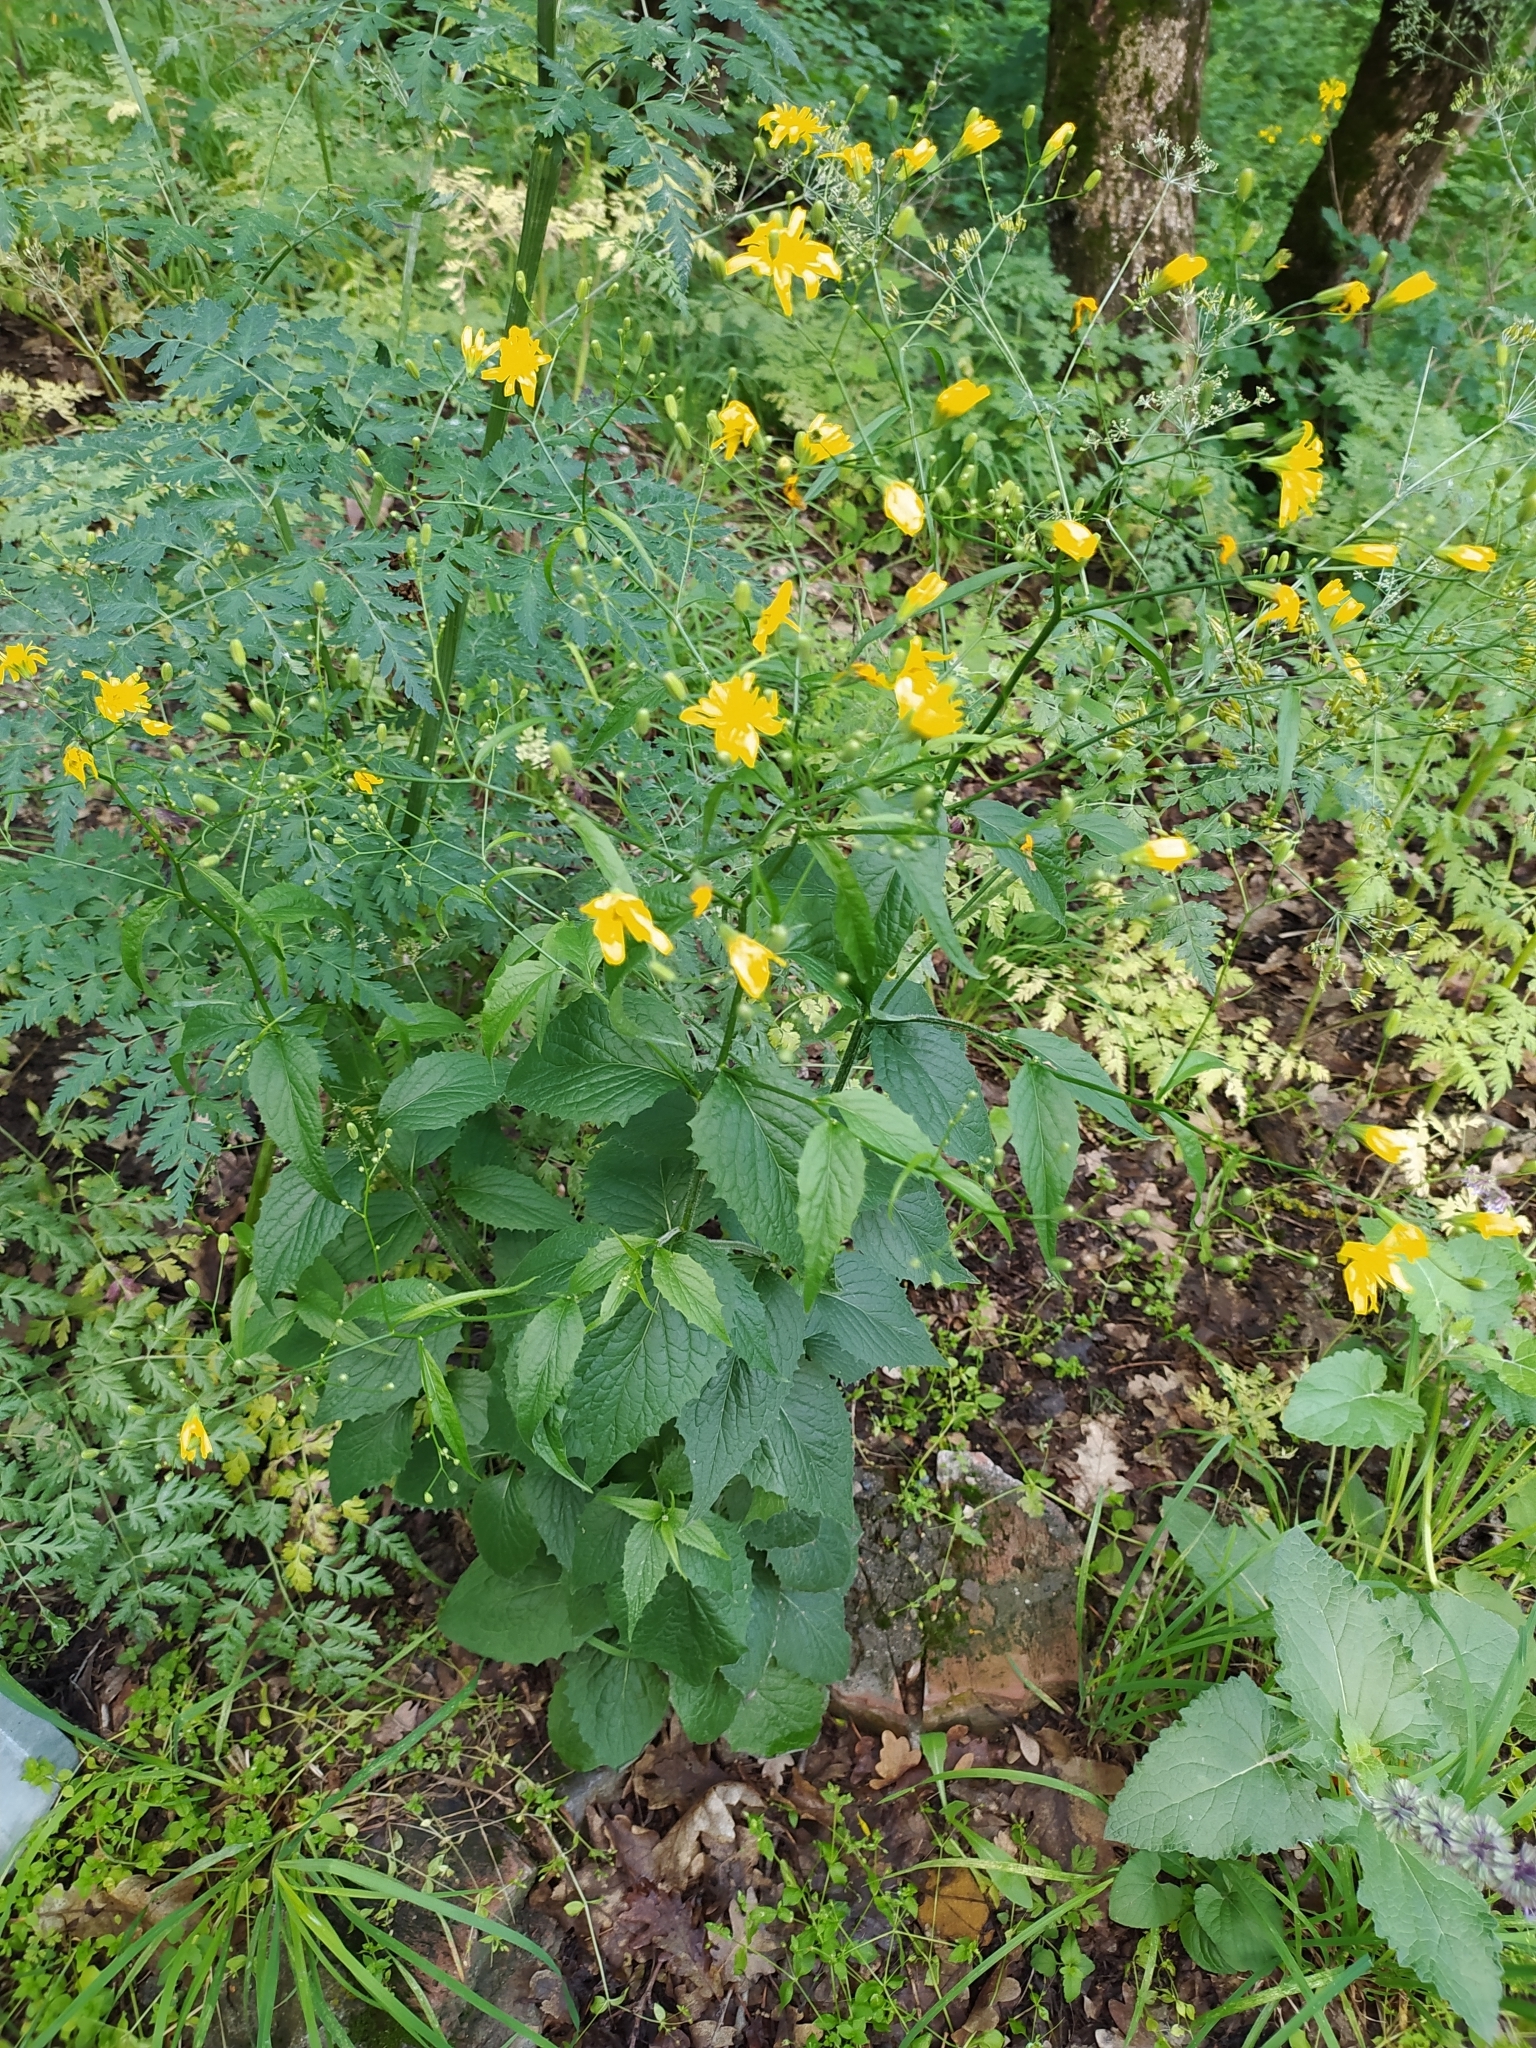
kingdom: Plantae
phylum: Tracheophyta
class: Magnoliopsida
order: Asterales
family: Asteraceae
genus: Lapsana
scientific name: Lapsana communis
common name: Nipplewort
